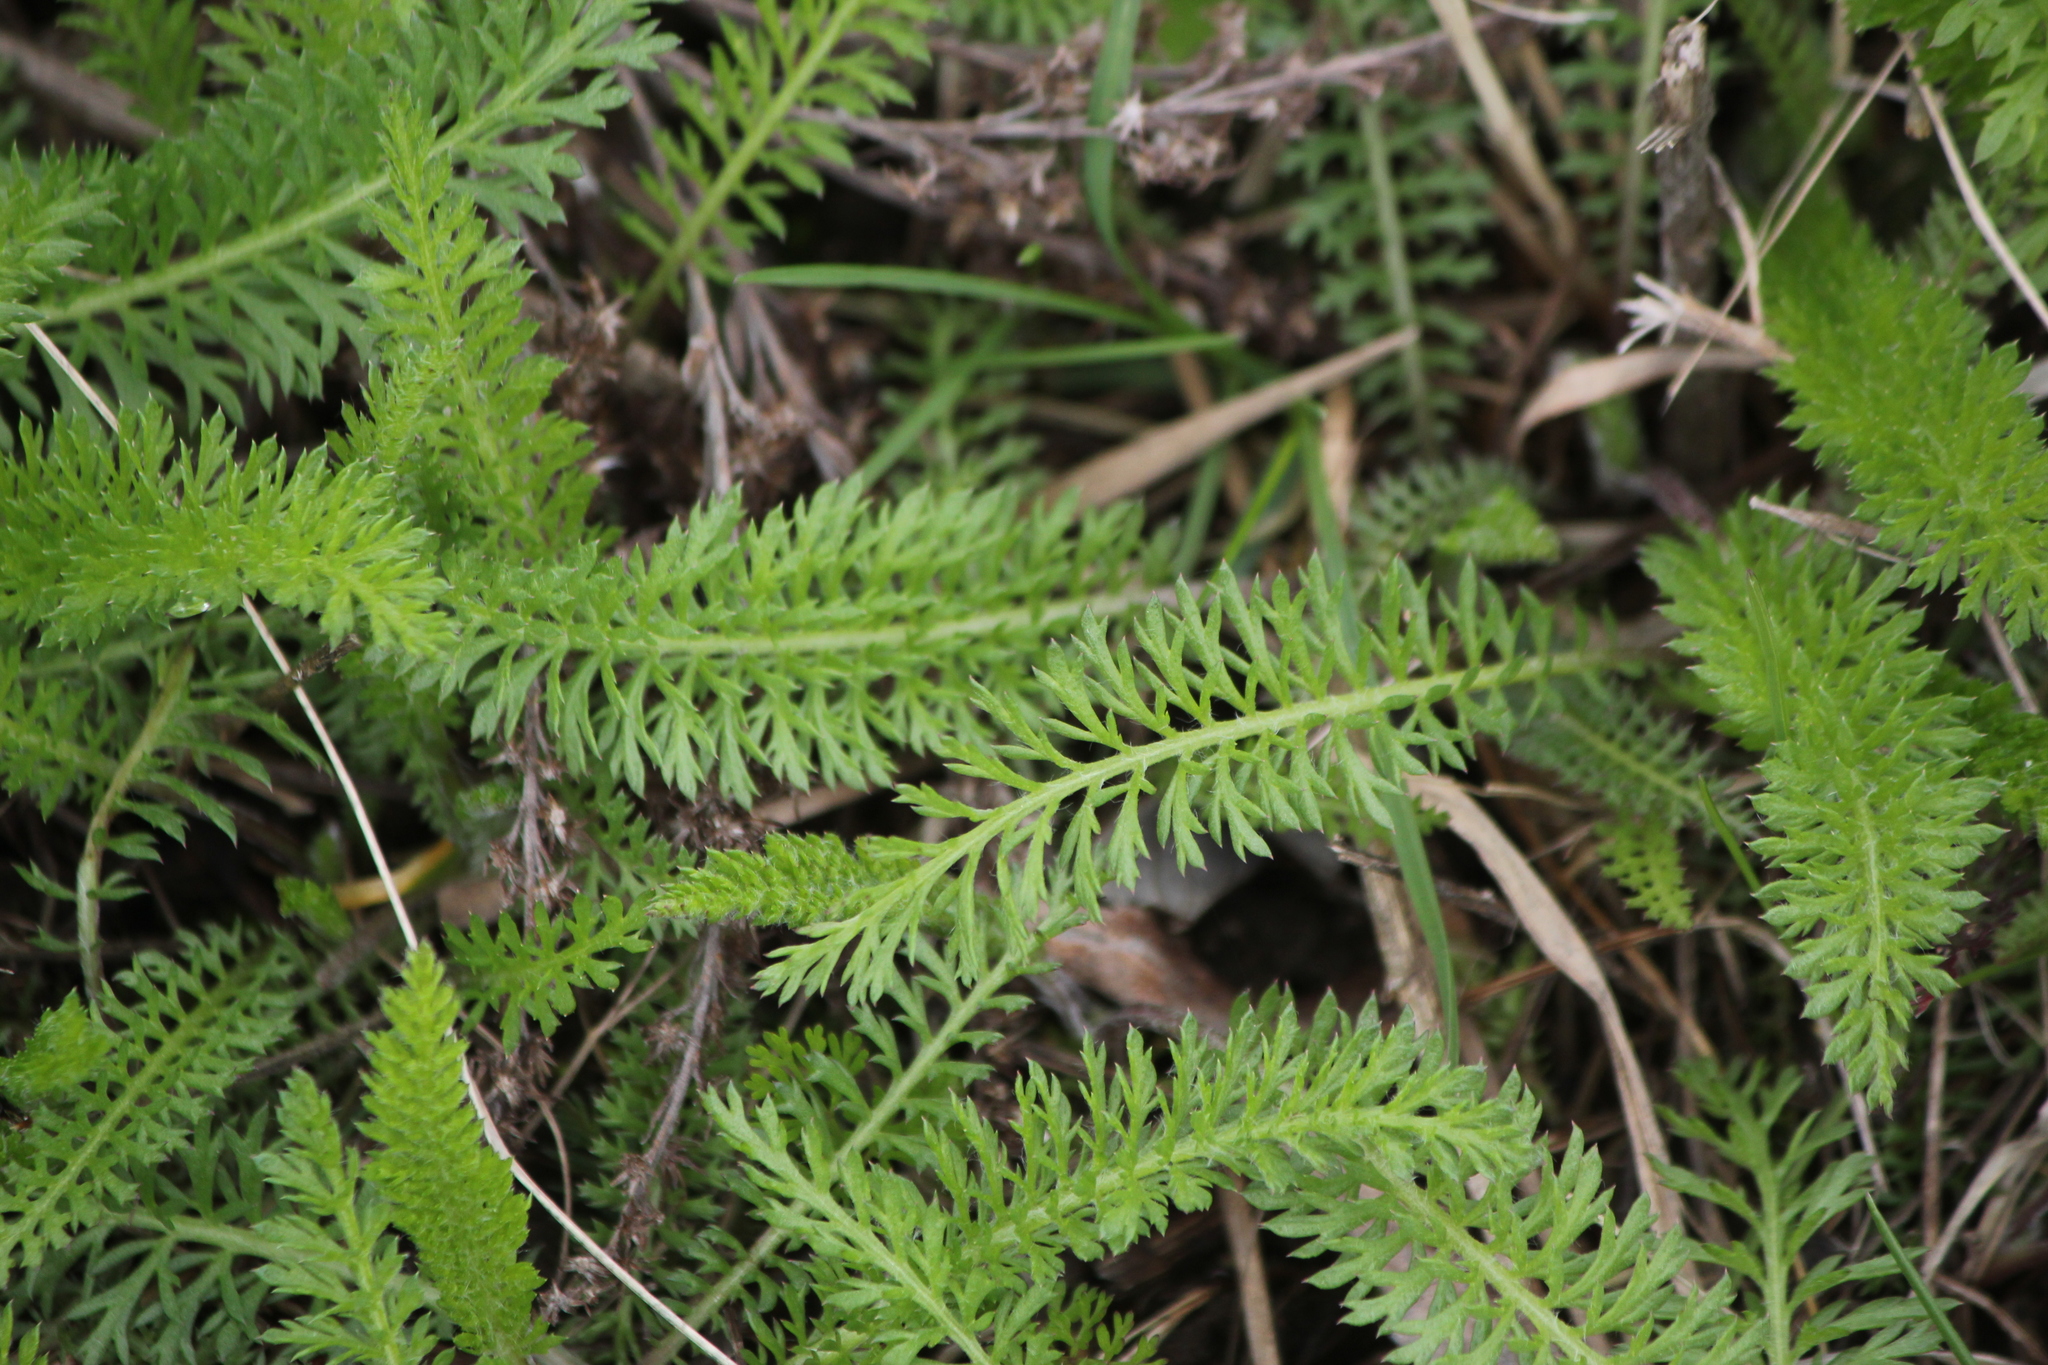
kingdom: Plantae
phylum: Tracheophyta
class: Magnoliopsida
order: Asterales
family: Asteraceae
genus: Achillea
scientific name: Achillea millefolium
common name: Yarrow
